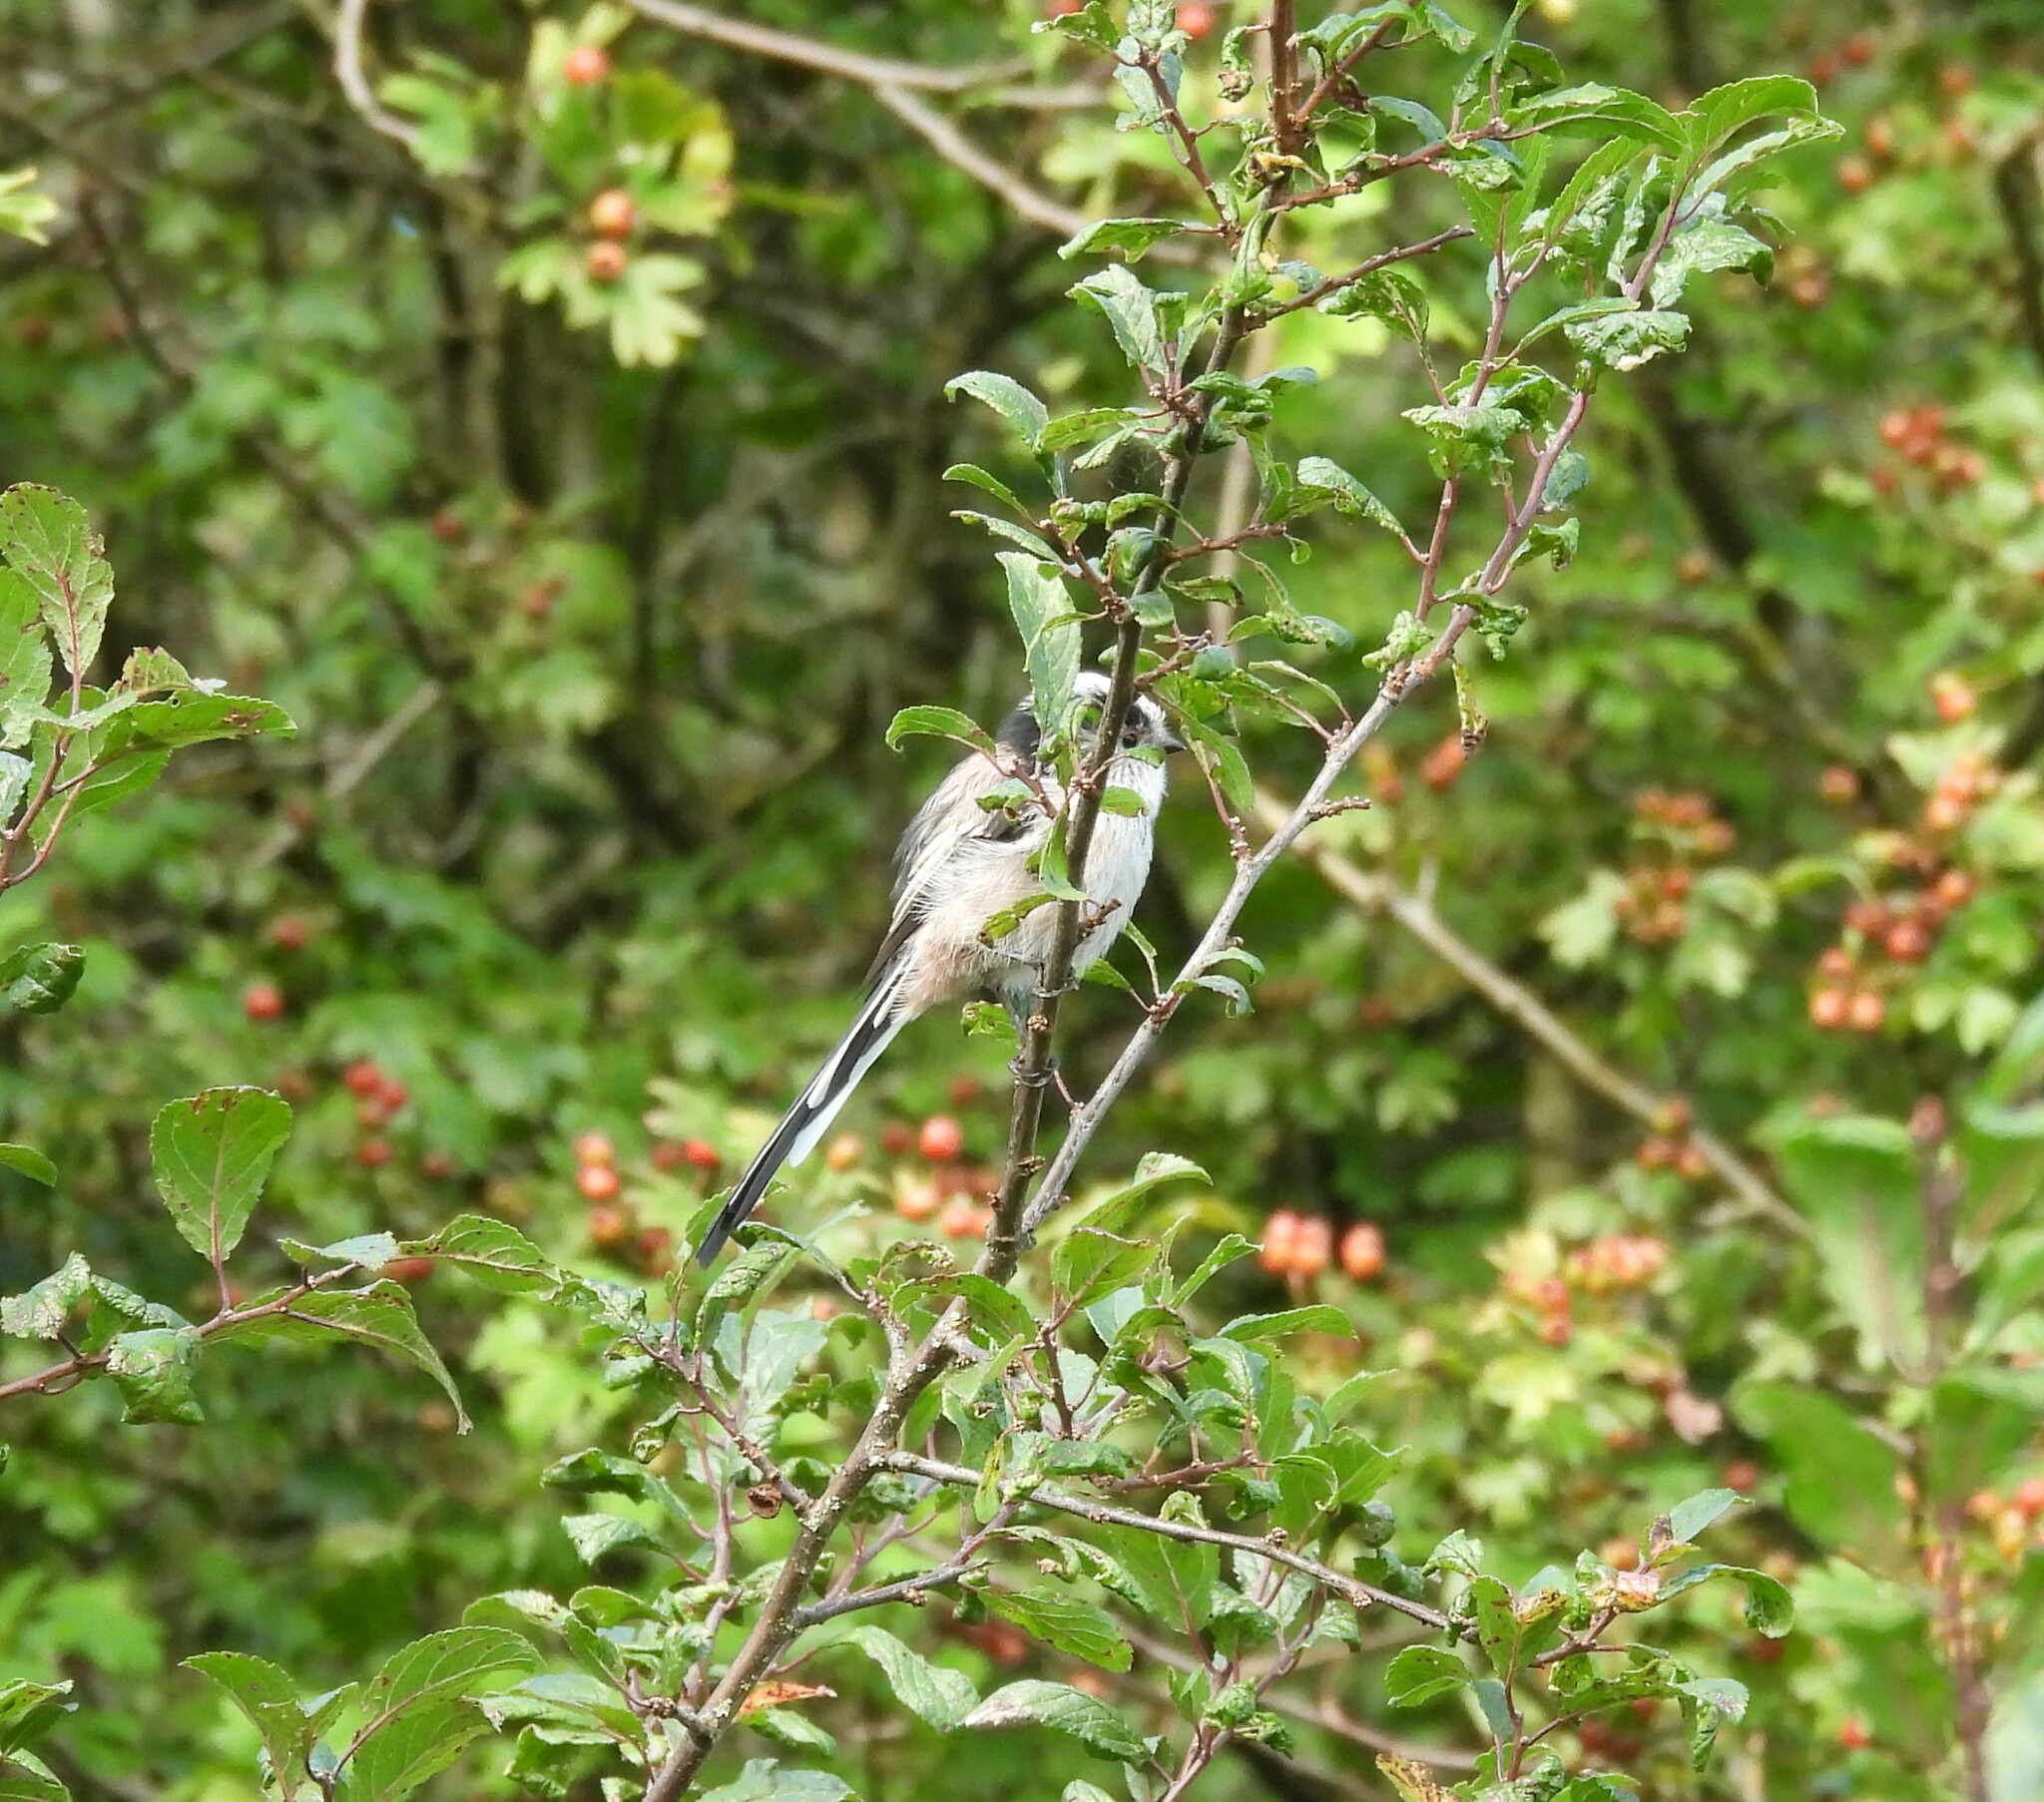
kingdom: Animalia
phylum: Chordata
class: Aves
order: Passeriformes
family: Aegithalidae
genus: Aegithalos
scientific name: Aegithalos caudatus
